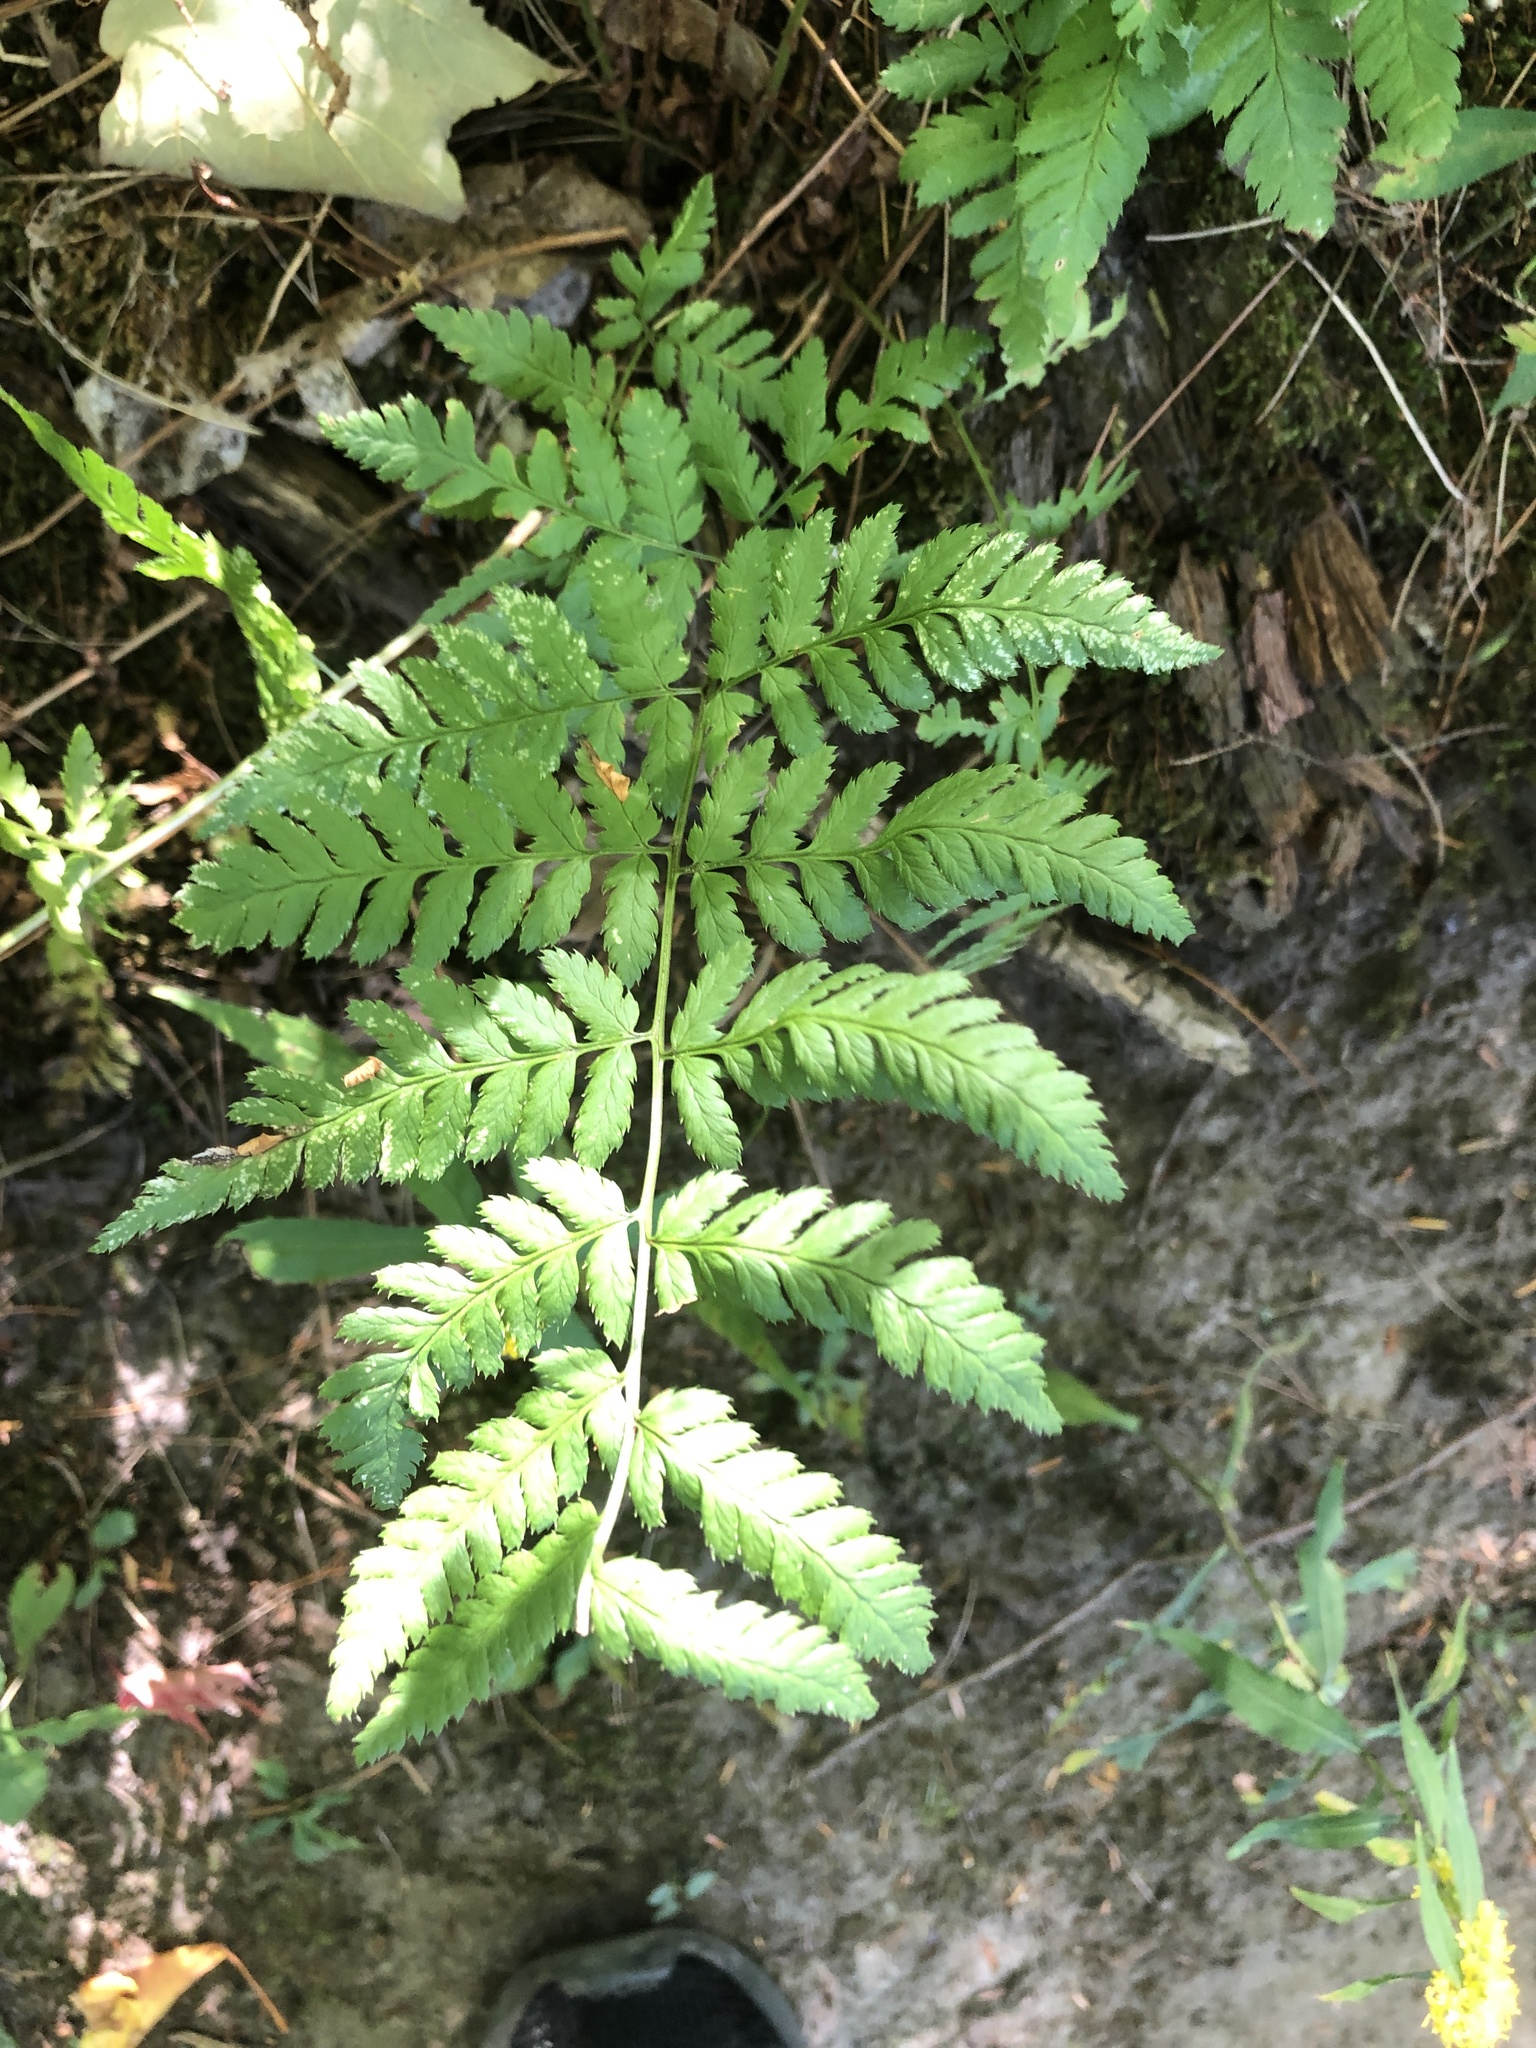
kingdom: Plantae
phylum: Tracheophyta
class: Polypodiopsida
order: Polypodiales
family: Dryopteridaceae
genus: Dryopteris
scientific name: Dryopteris carthusiana
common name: Narrow buckler-fern
